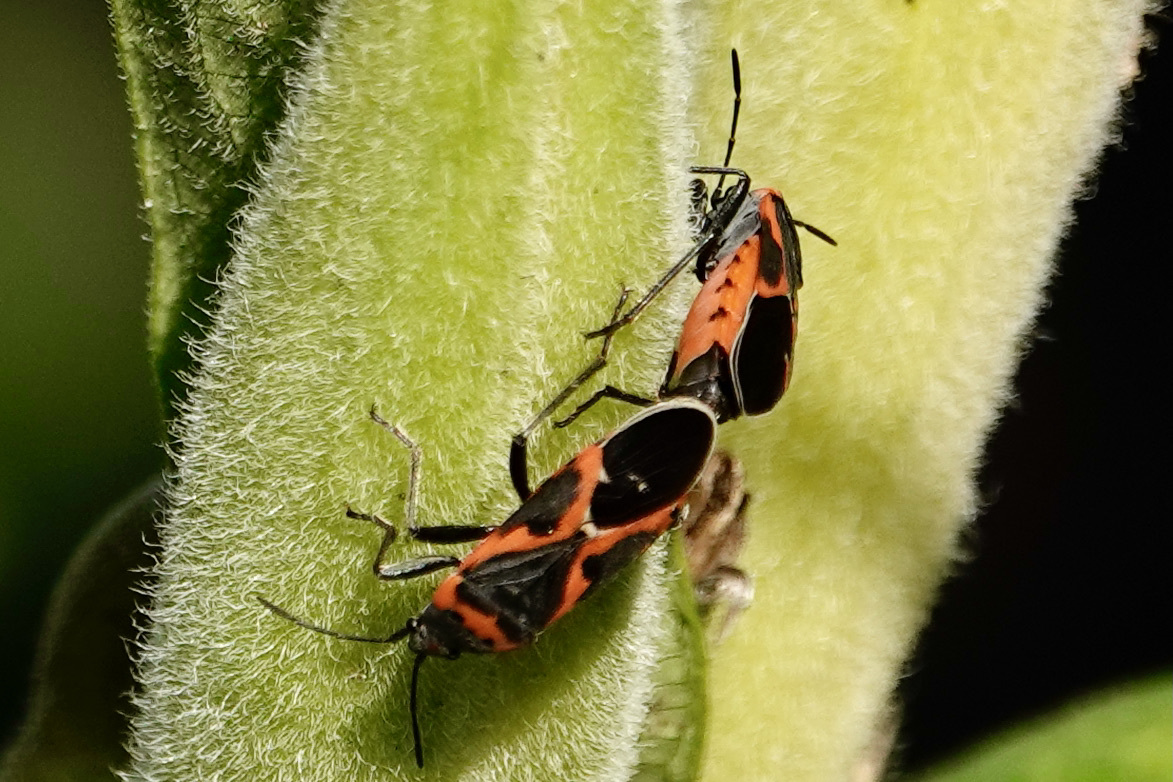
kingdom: Animalia
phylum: Arthropoda
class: Insecta
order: Hemiptera
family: Lygaeidae
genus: Lygaeus
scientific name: Lygaeus kalmii
